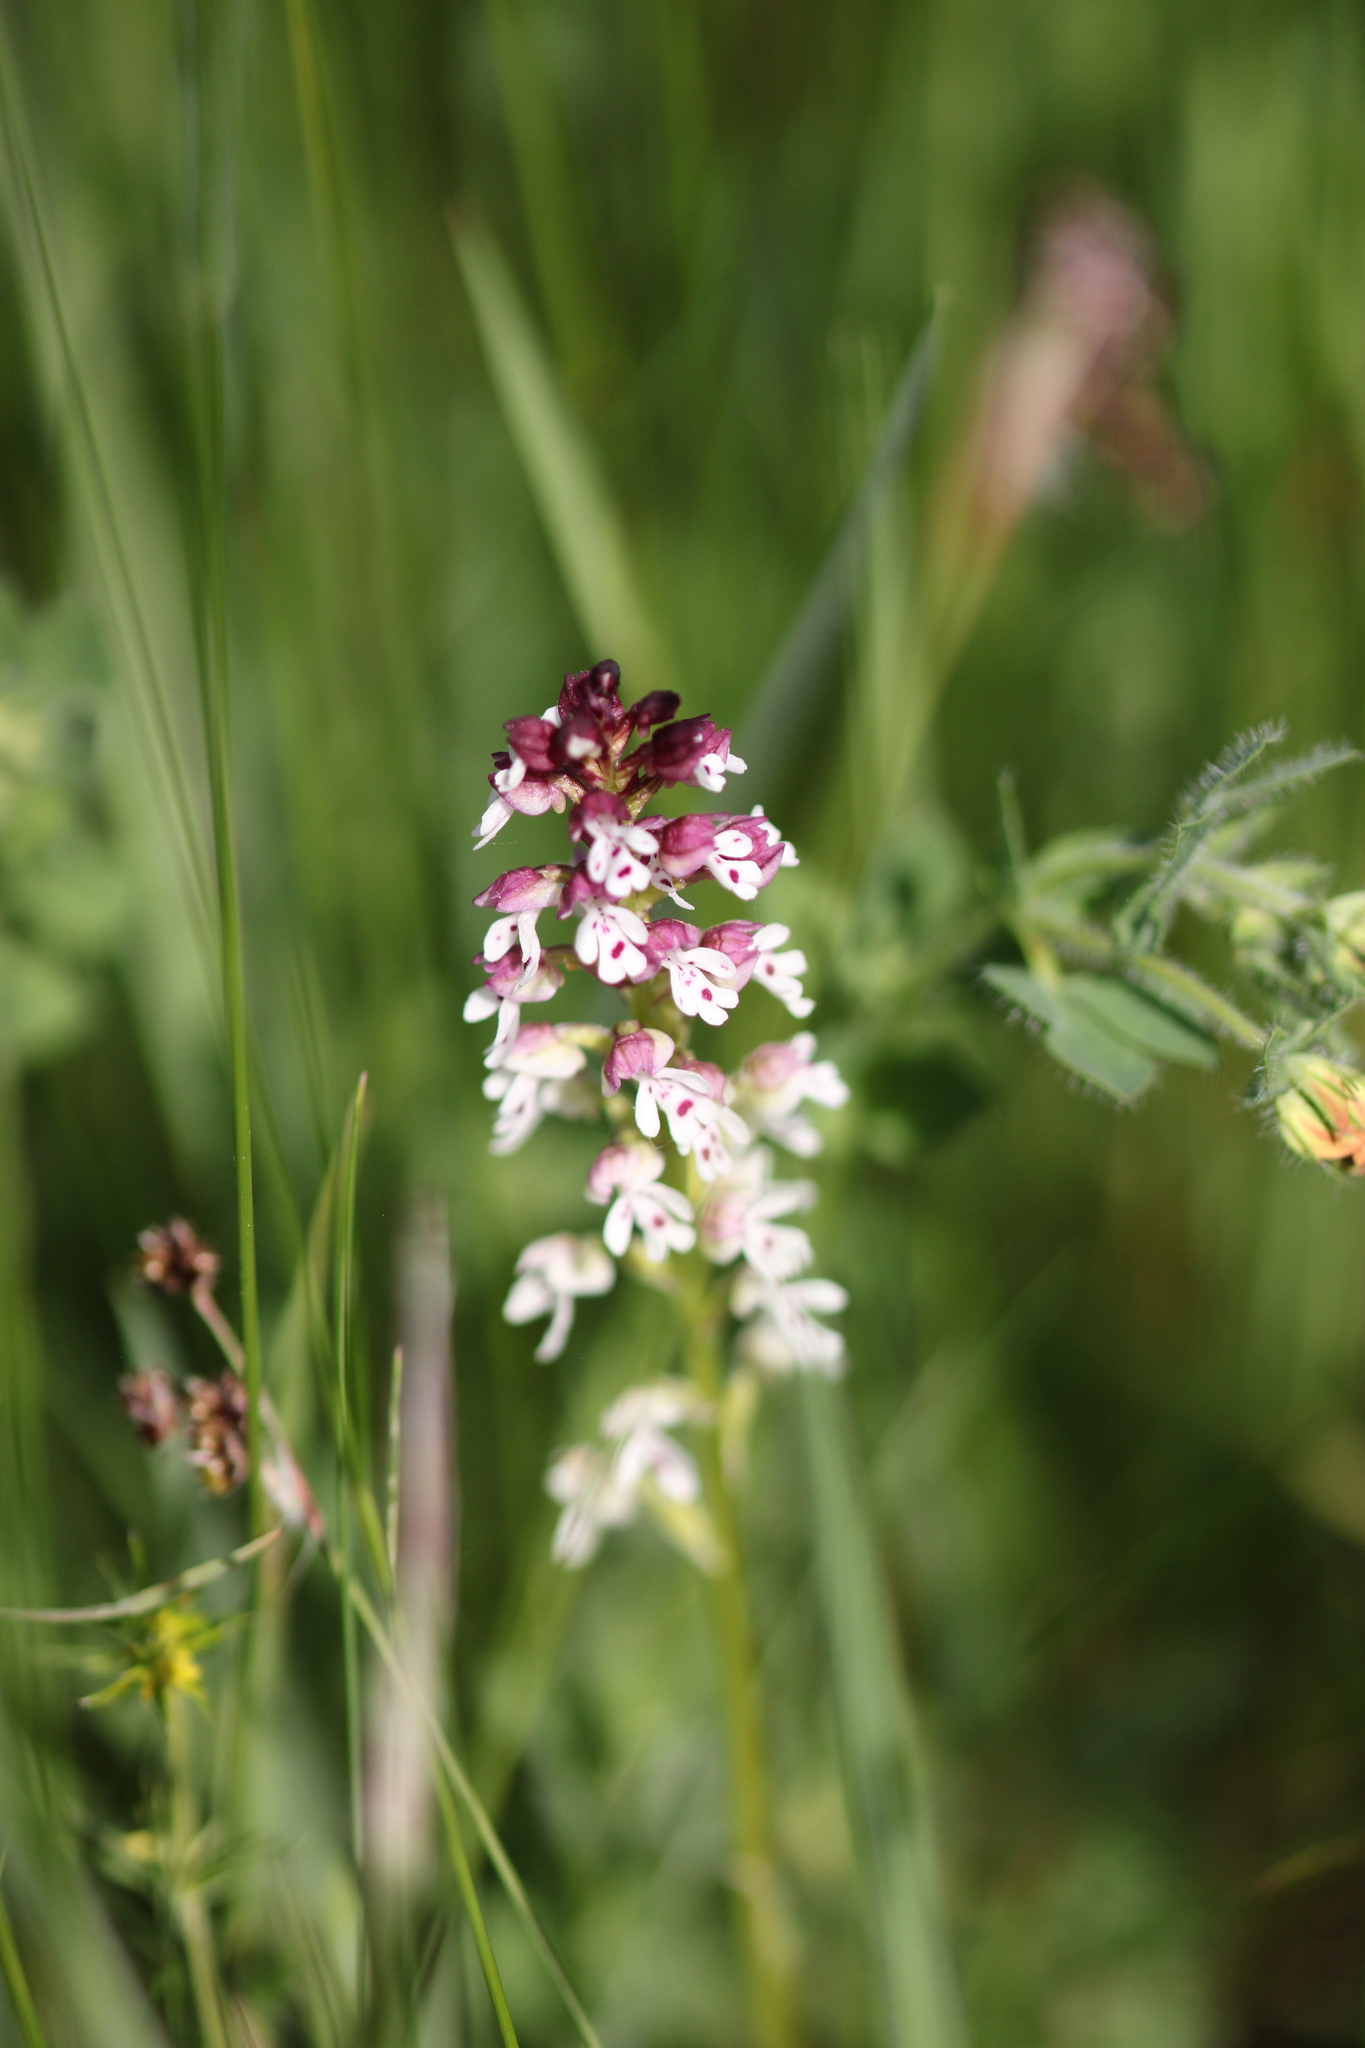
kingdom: Plantae
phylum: Tracheophyta
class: Liliopsida
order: Asparagales
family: Orchidaceae
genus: Neotinea
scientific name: Neotinea ustulata
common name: Burnt orchid
